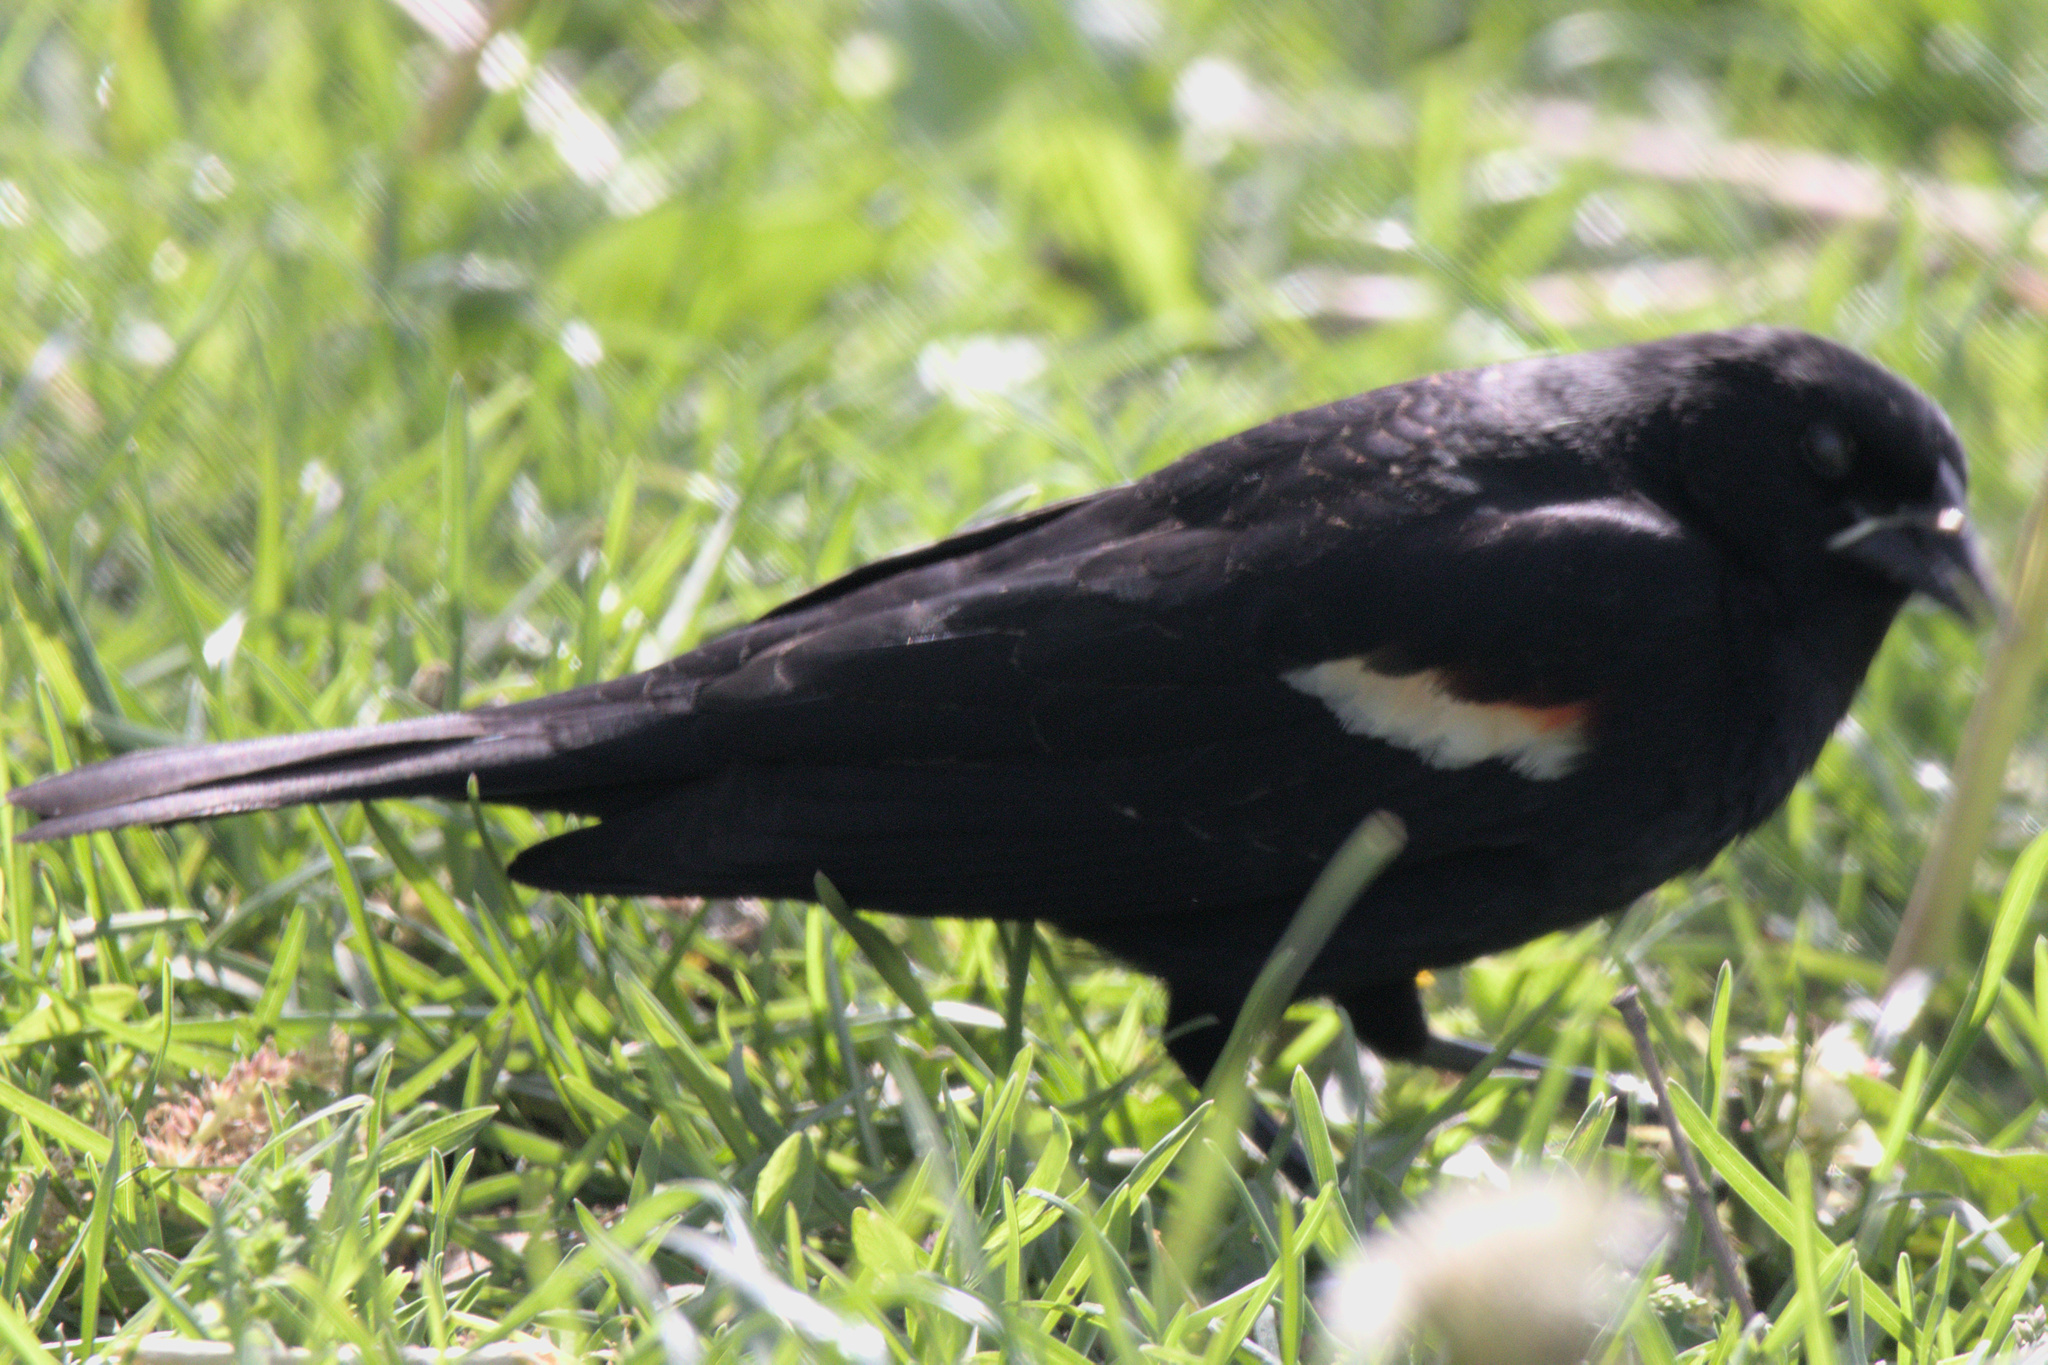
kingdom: Animalia
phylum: Chordata
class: Aves
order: Passeriformes
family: Icteridae
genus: Agelaius
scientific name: Agelaius phoeniceus
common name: Red-winged blackbird
